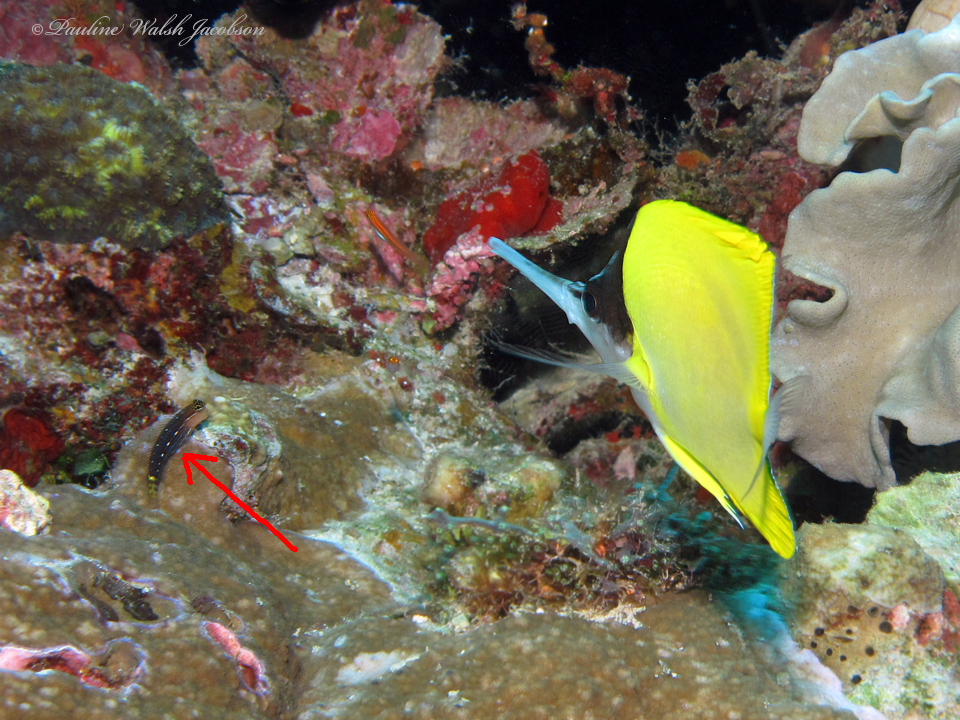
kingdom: Animalia
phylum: Chordata
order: Perciformes
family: Blenniidae
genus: Ecsenius
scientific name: Ecsenius pictus
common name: Pictus blenny
